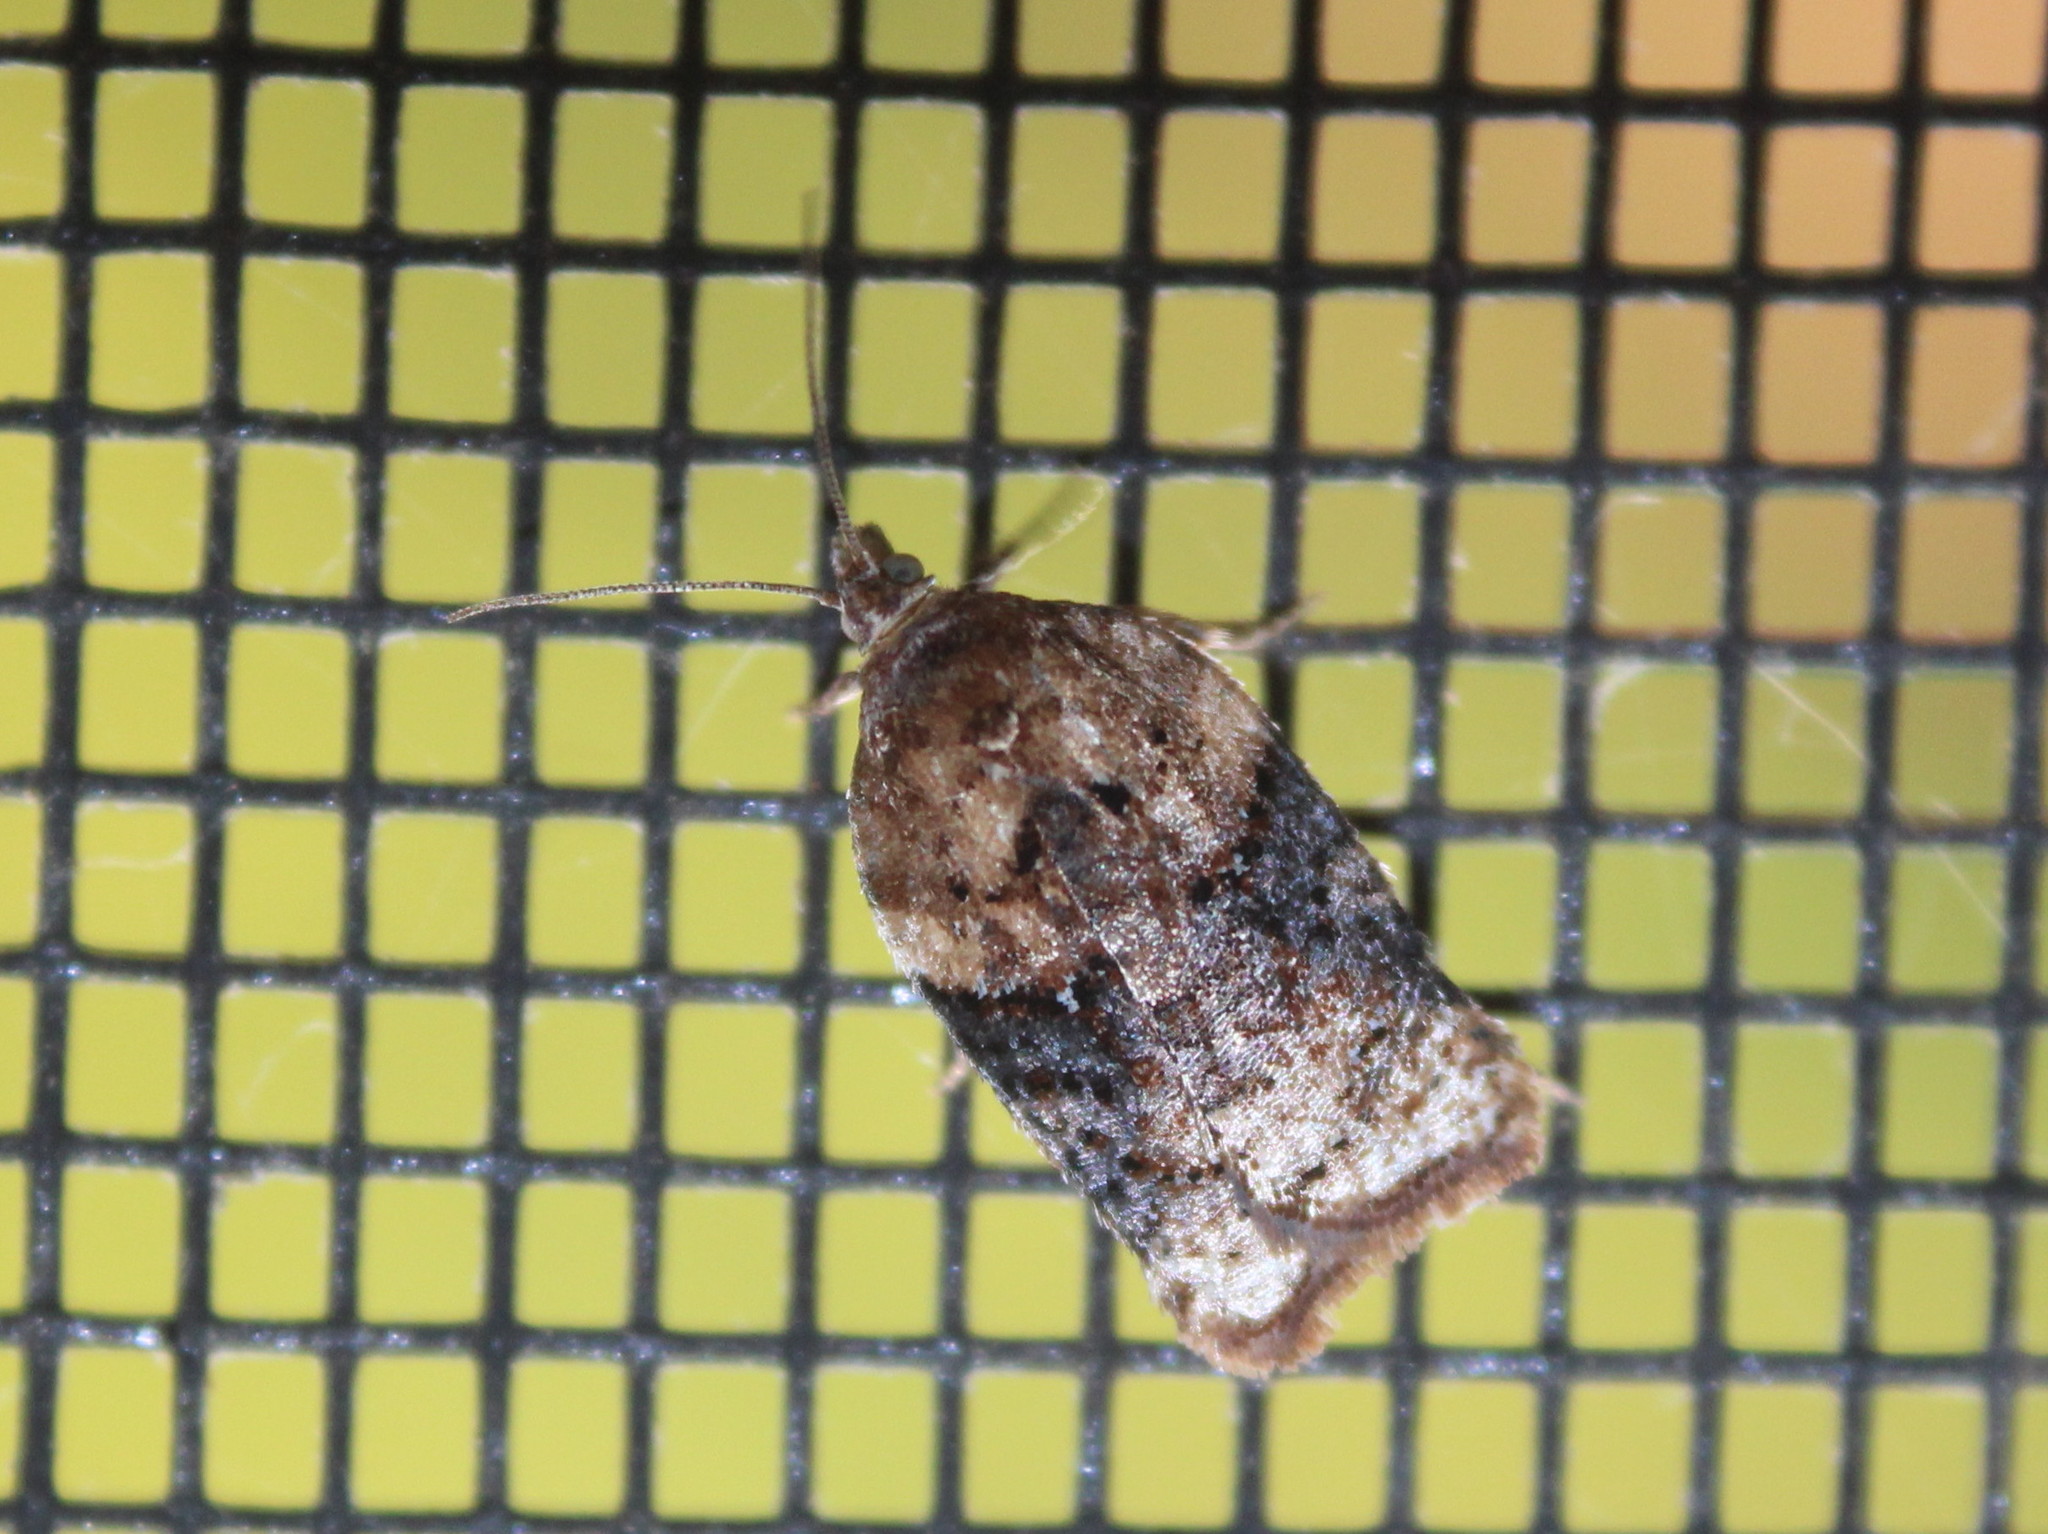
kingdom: Animalia
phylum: Arthropoda
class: Insecta
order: Lepidoptera
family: Tortricidae
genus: Acleris
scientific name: Acleris braunana
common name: Alder leafroller
